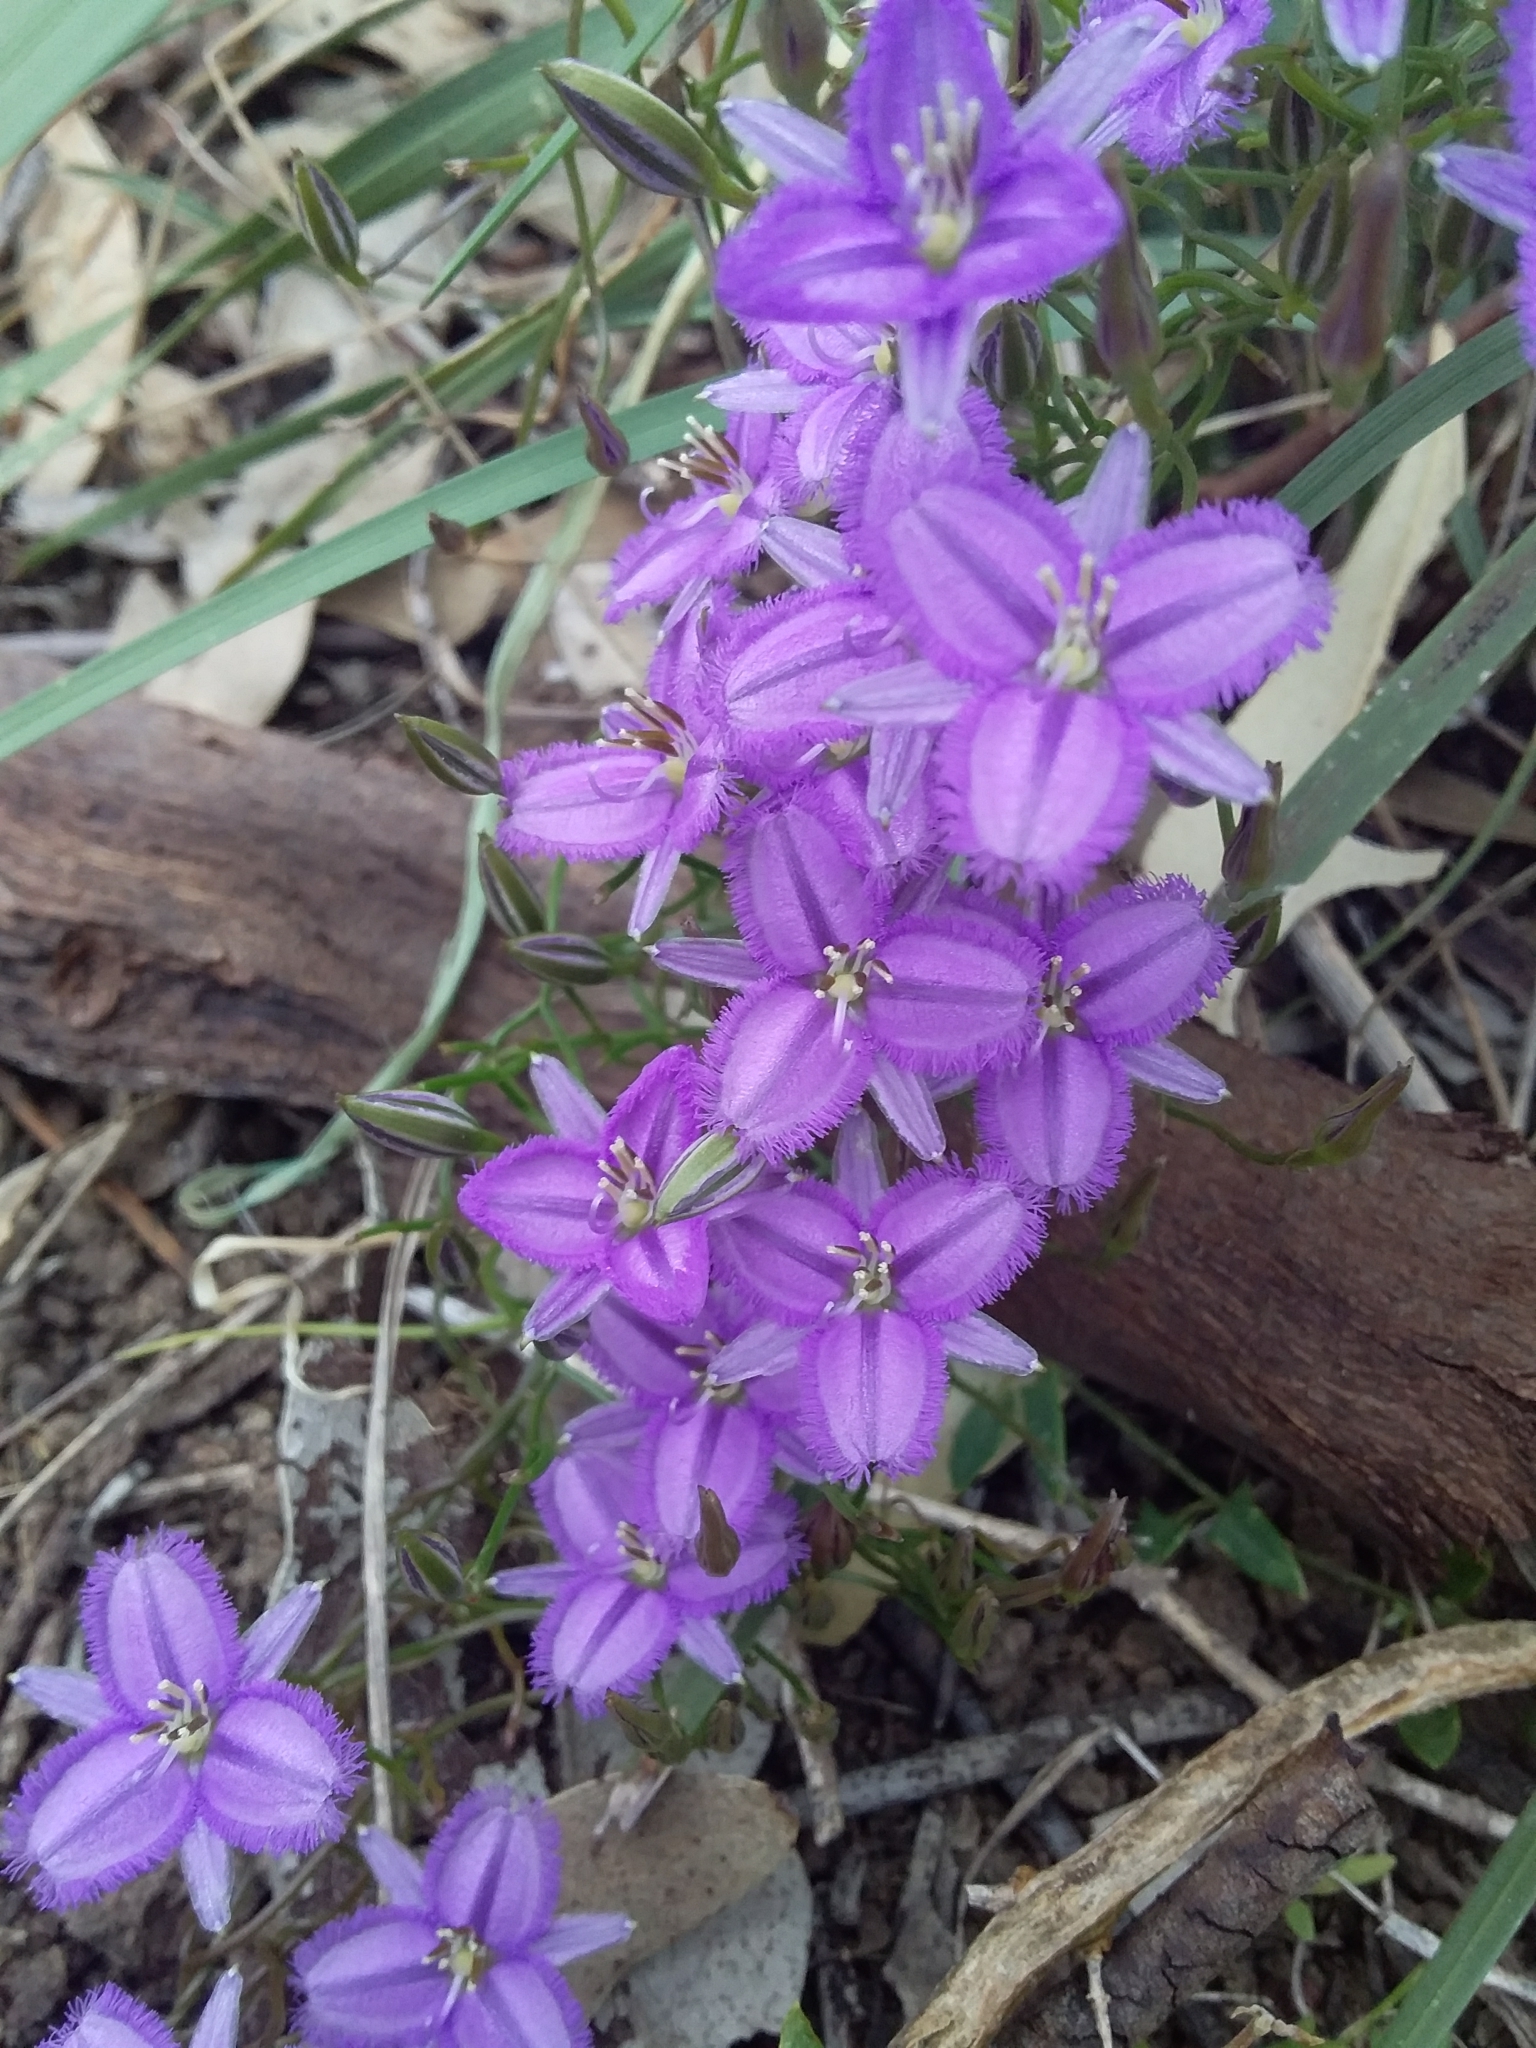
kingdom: Plantae
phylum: Tracheophyta
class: Liliopsida
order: Asparagales
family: Asparagaceae
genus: Thysanotus
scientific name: Thysanotus patersonii
